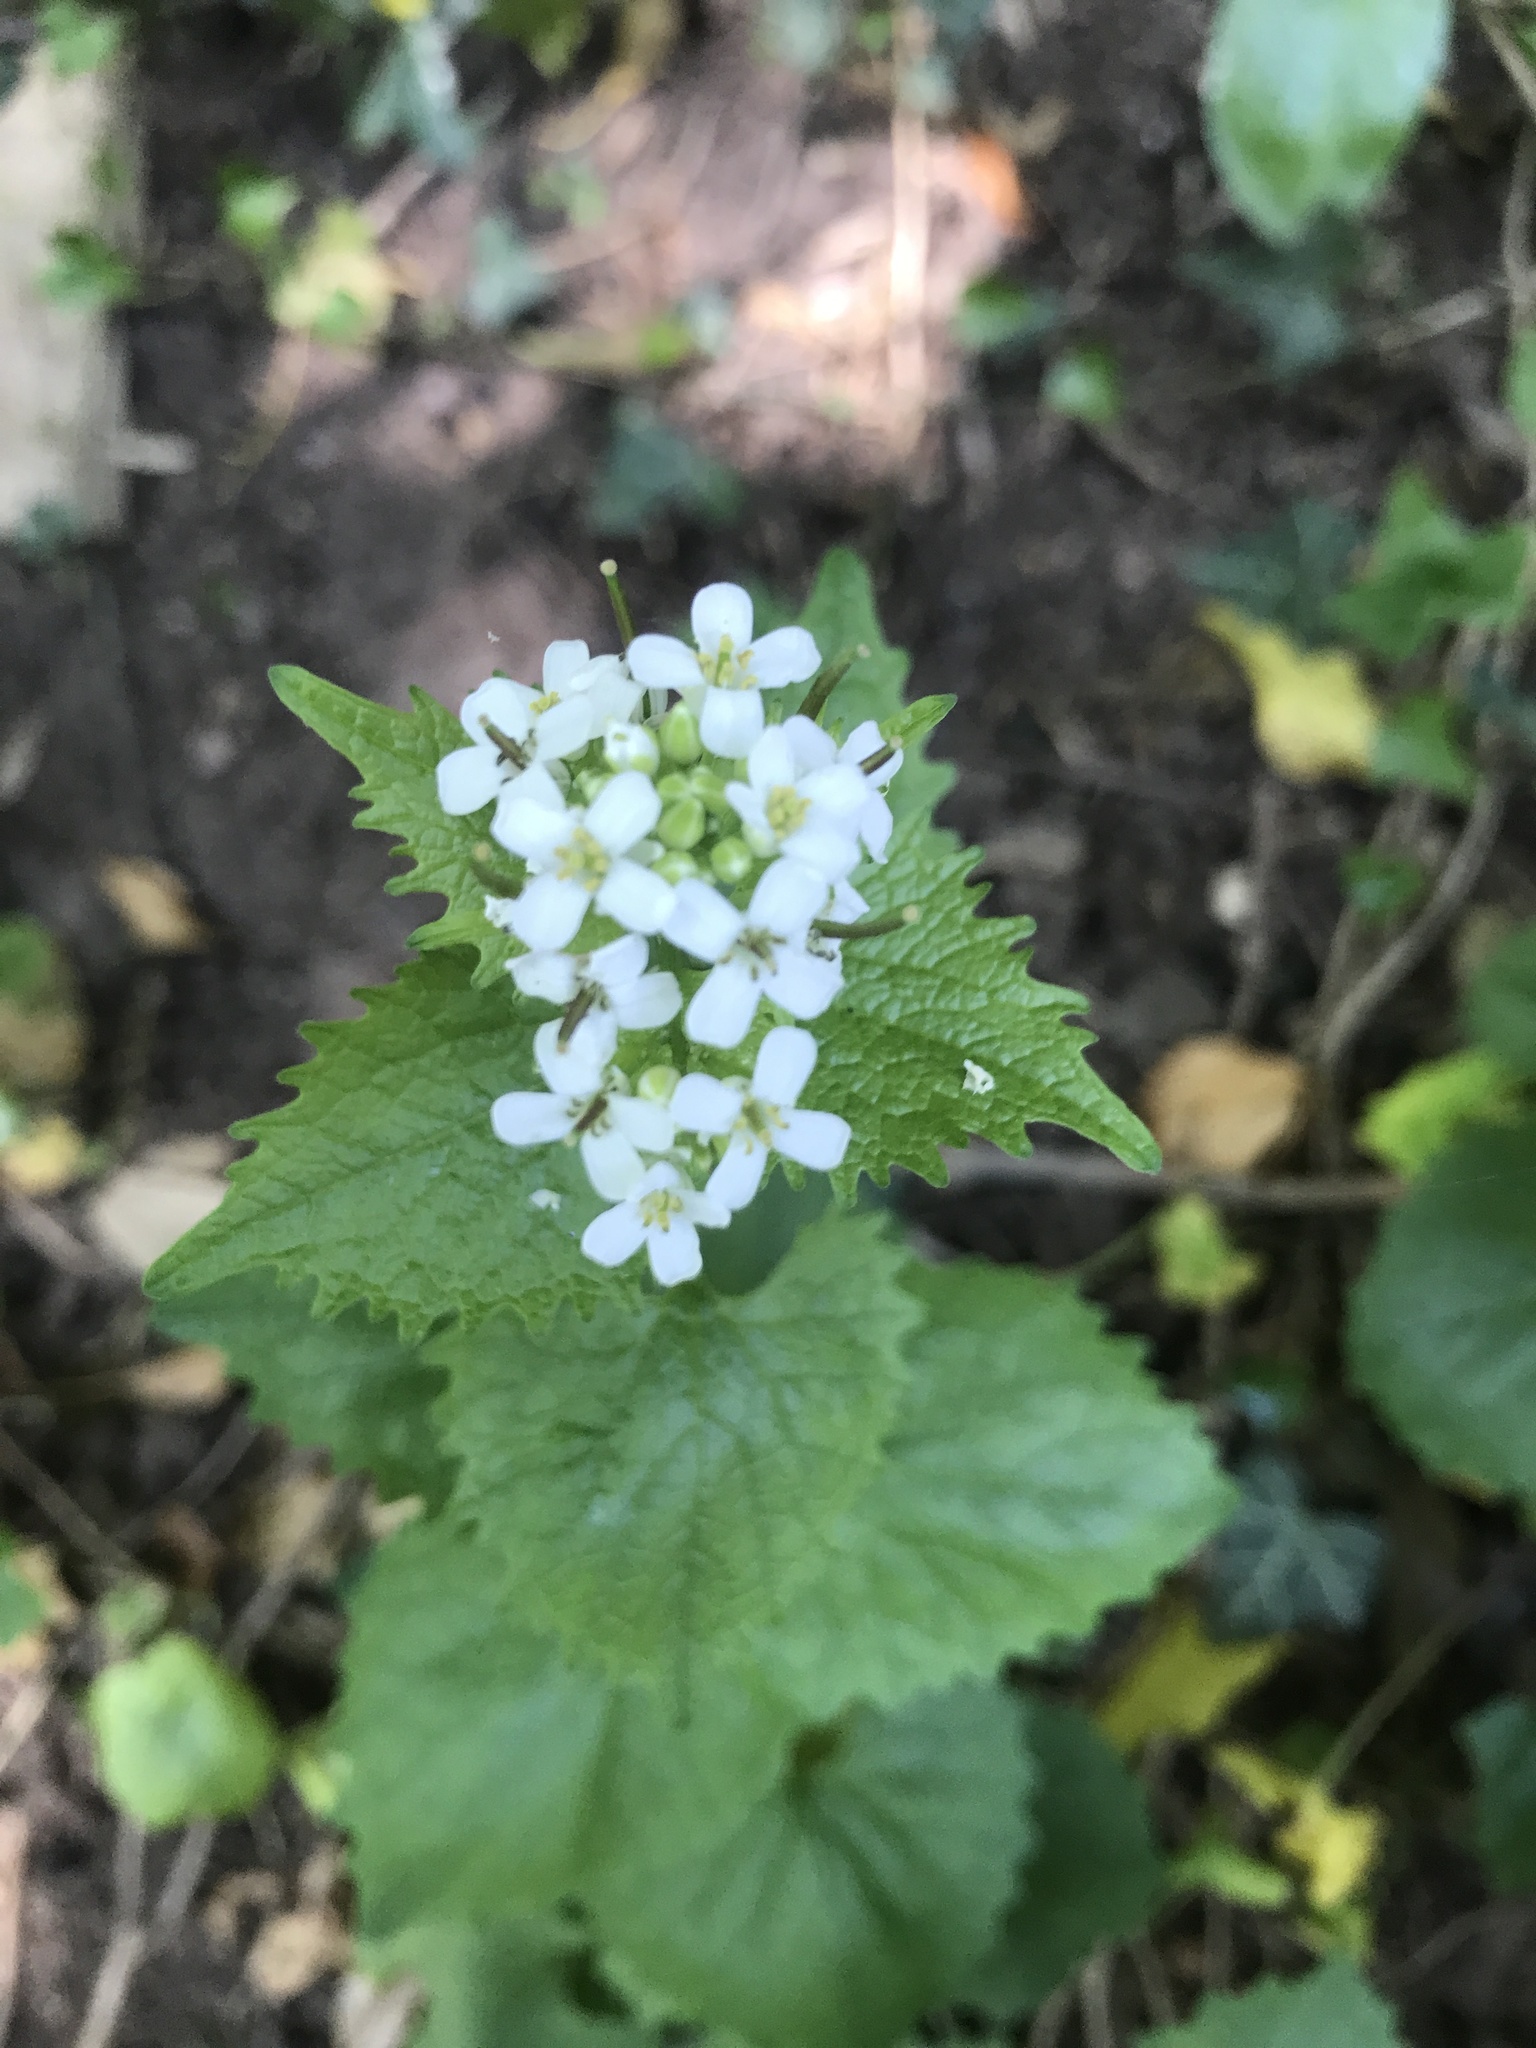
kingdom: Plantae
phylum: Tracheophyta
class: Magnoliopsida
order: Brassicales
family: Brassicaceae
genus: Alliaria
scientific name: Alliaria petiolata
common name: Garlic mustard
